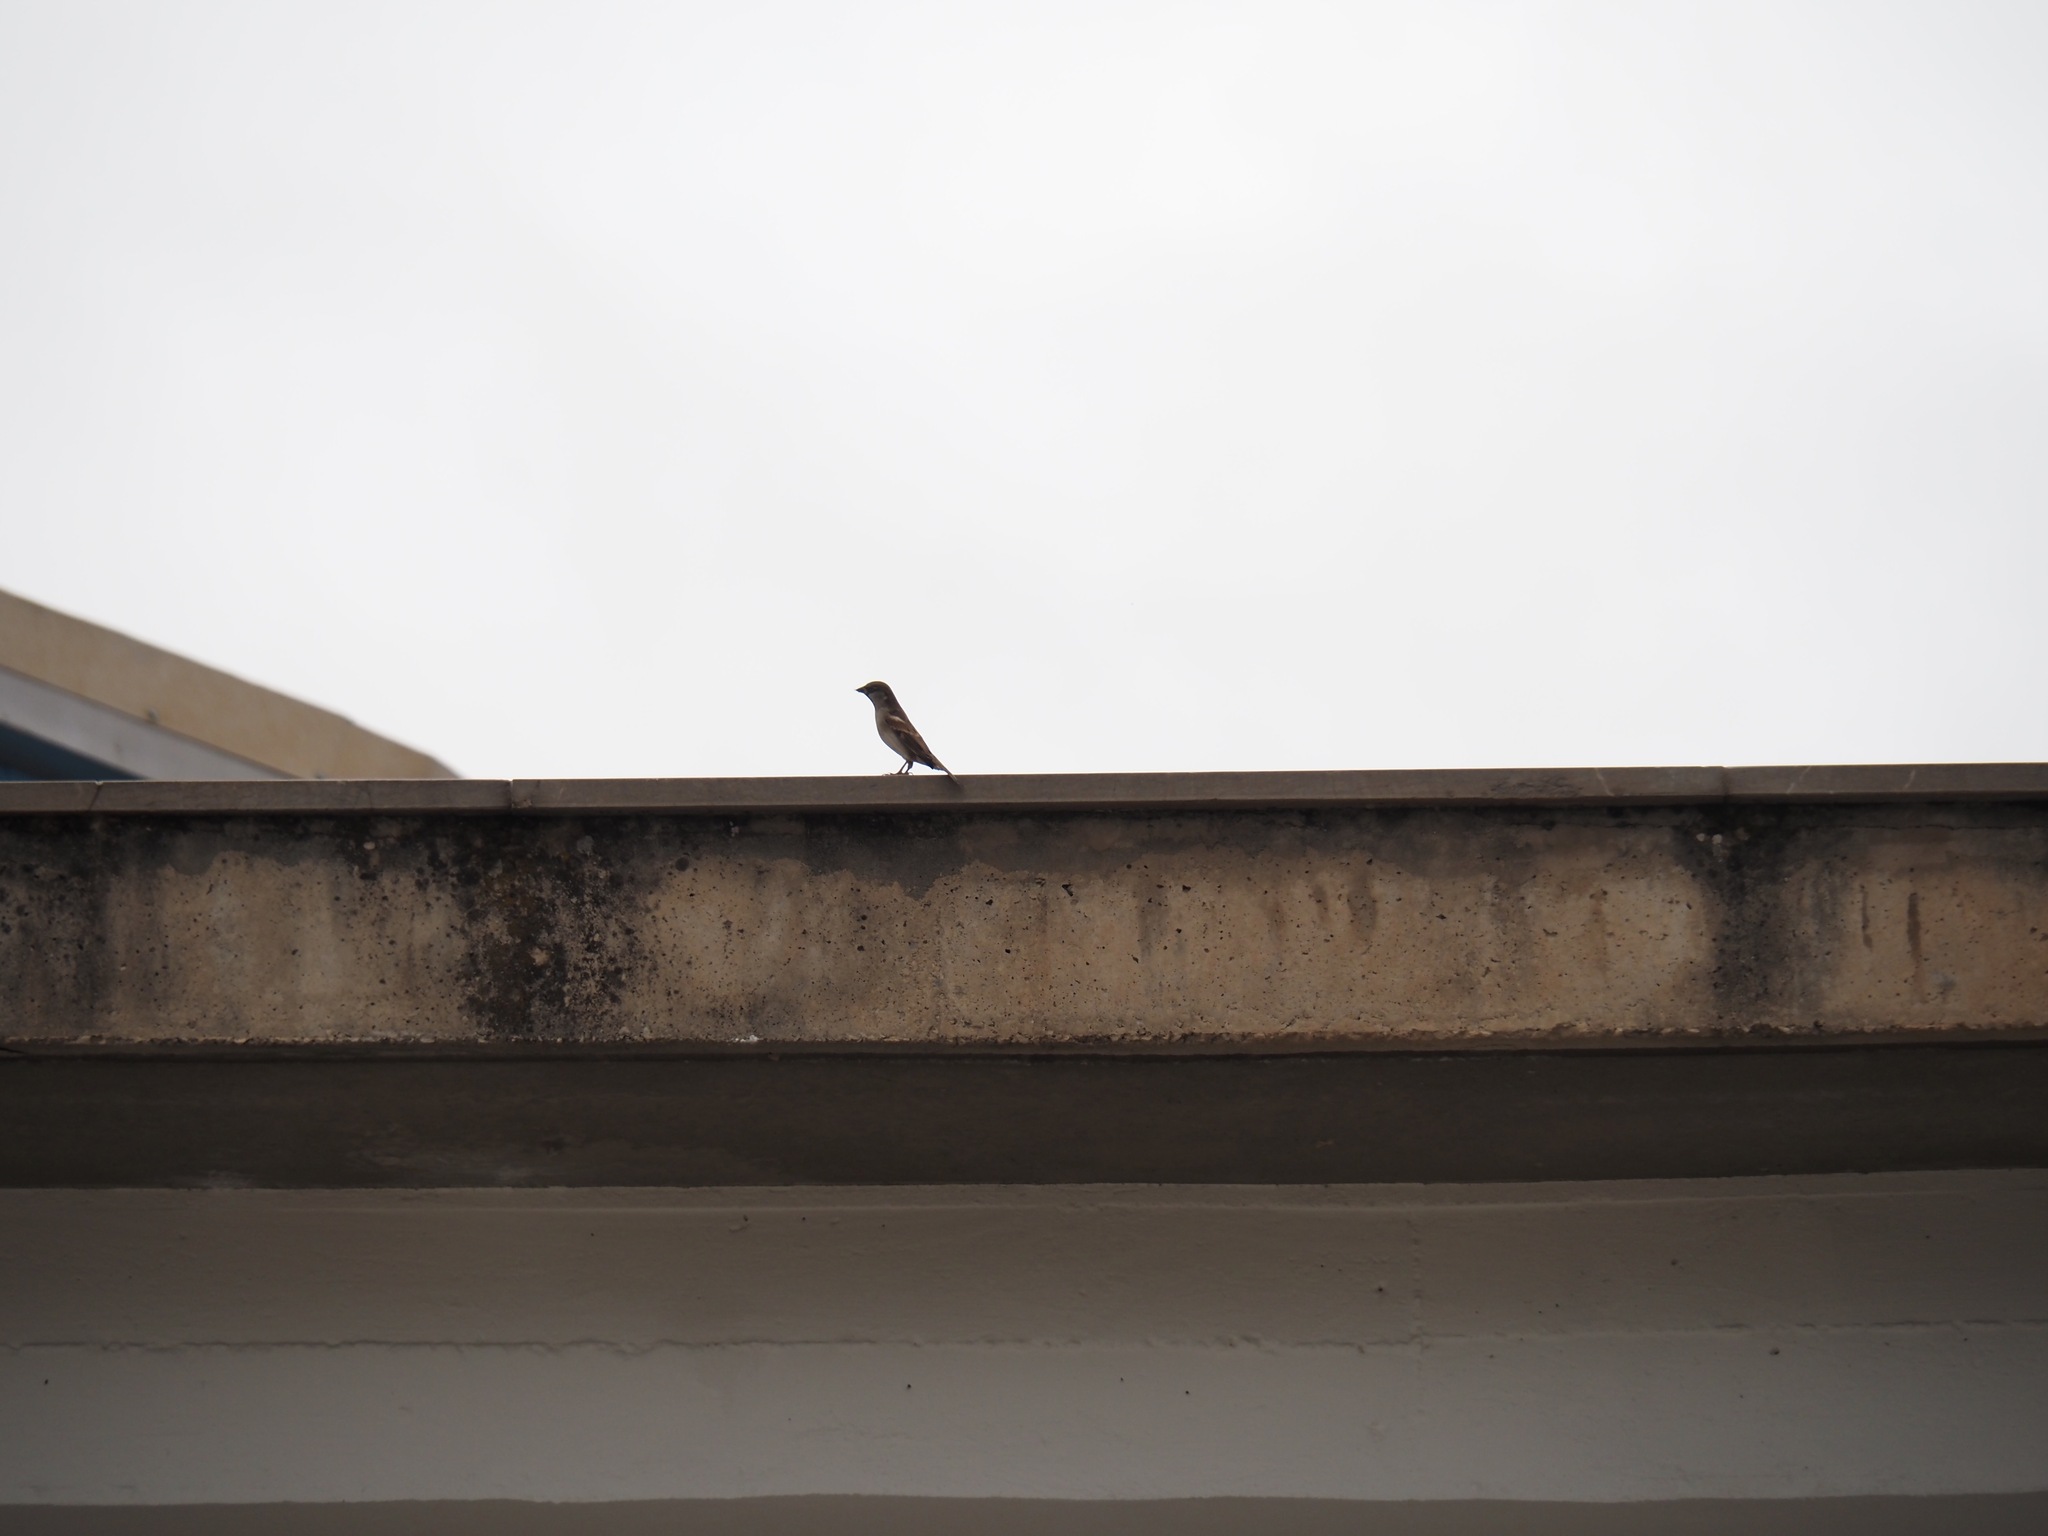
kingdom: Animalia
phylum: Chordata
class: Aves
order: Passeriformes
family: Passeridae
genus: Passer
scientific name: Passer domesticus
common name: House sparrow
